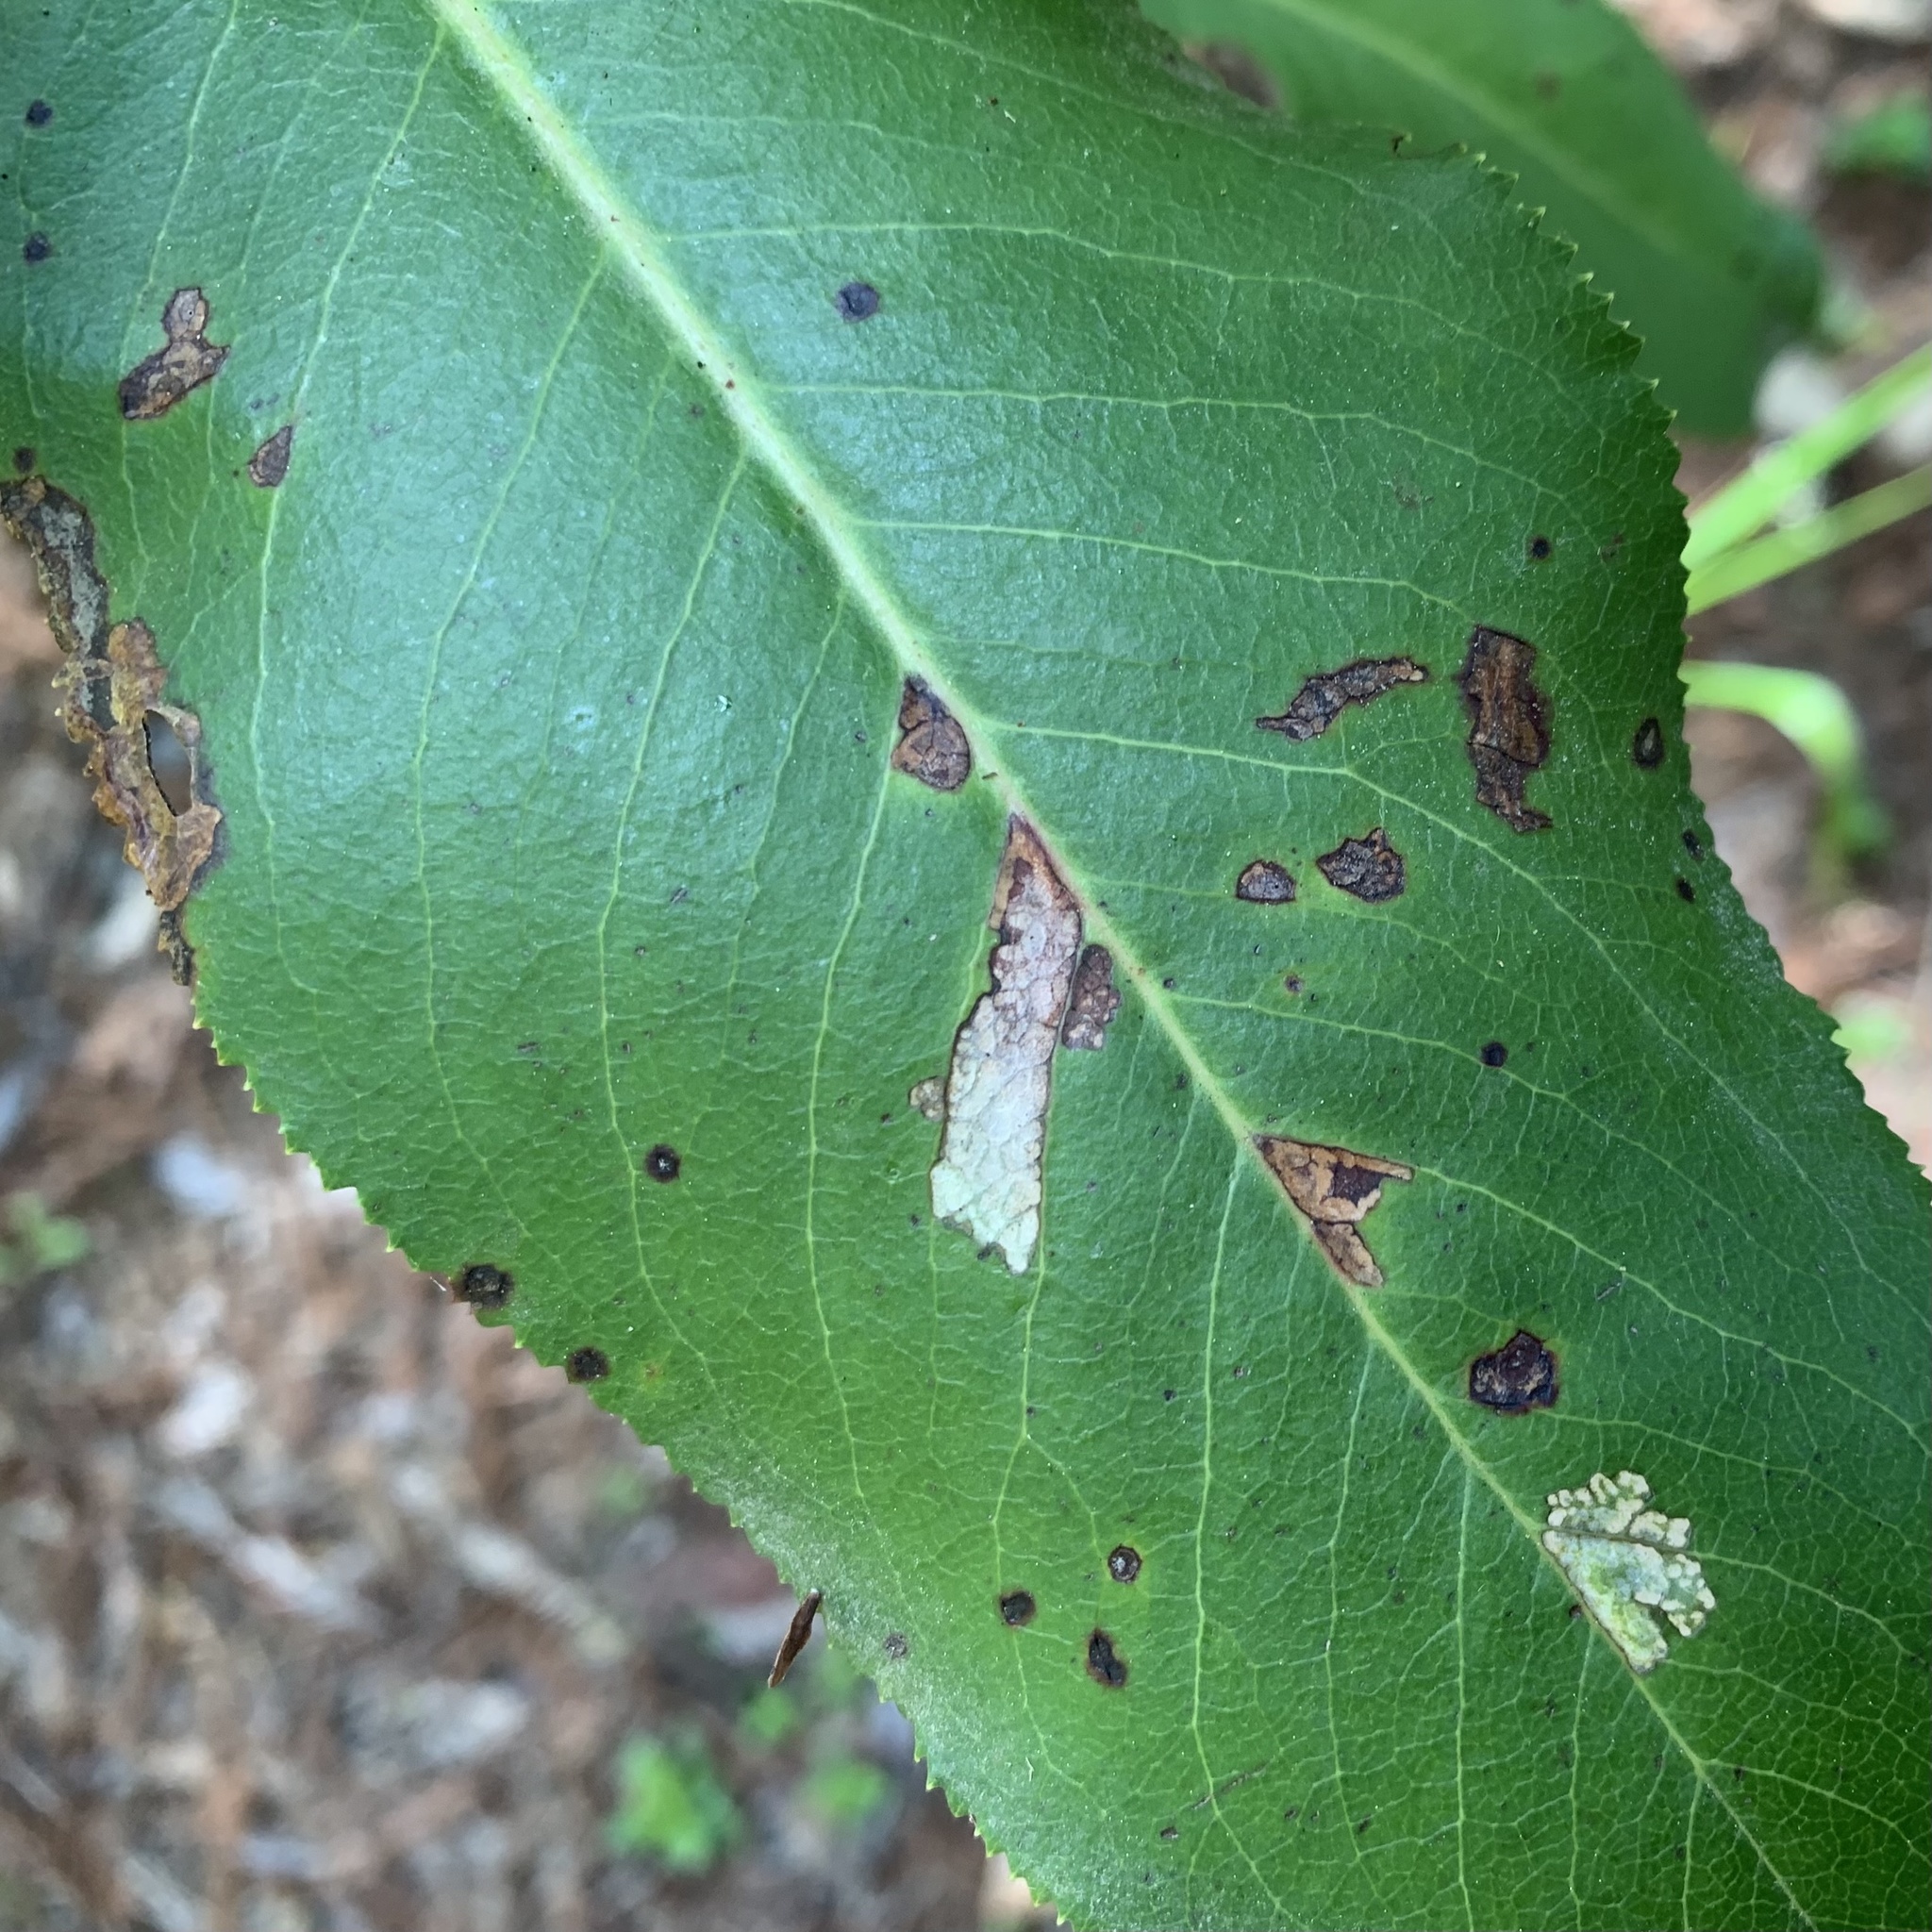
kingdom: Animalia
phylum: Arthropoda
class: Insecta
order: Lepidoptera
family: Coleophoridae
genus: Coleophora
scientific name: Coleophora glaucella
